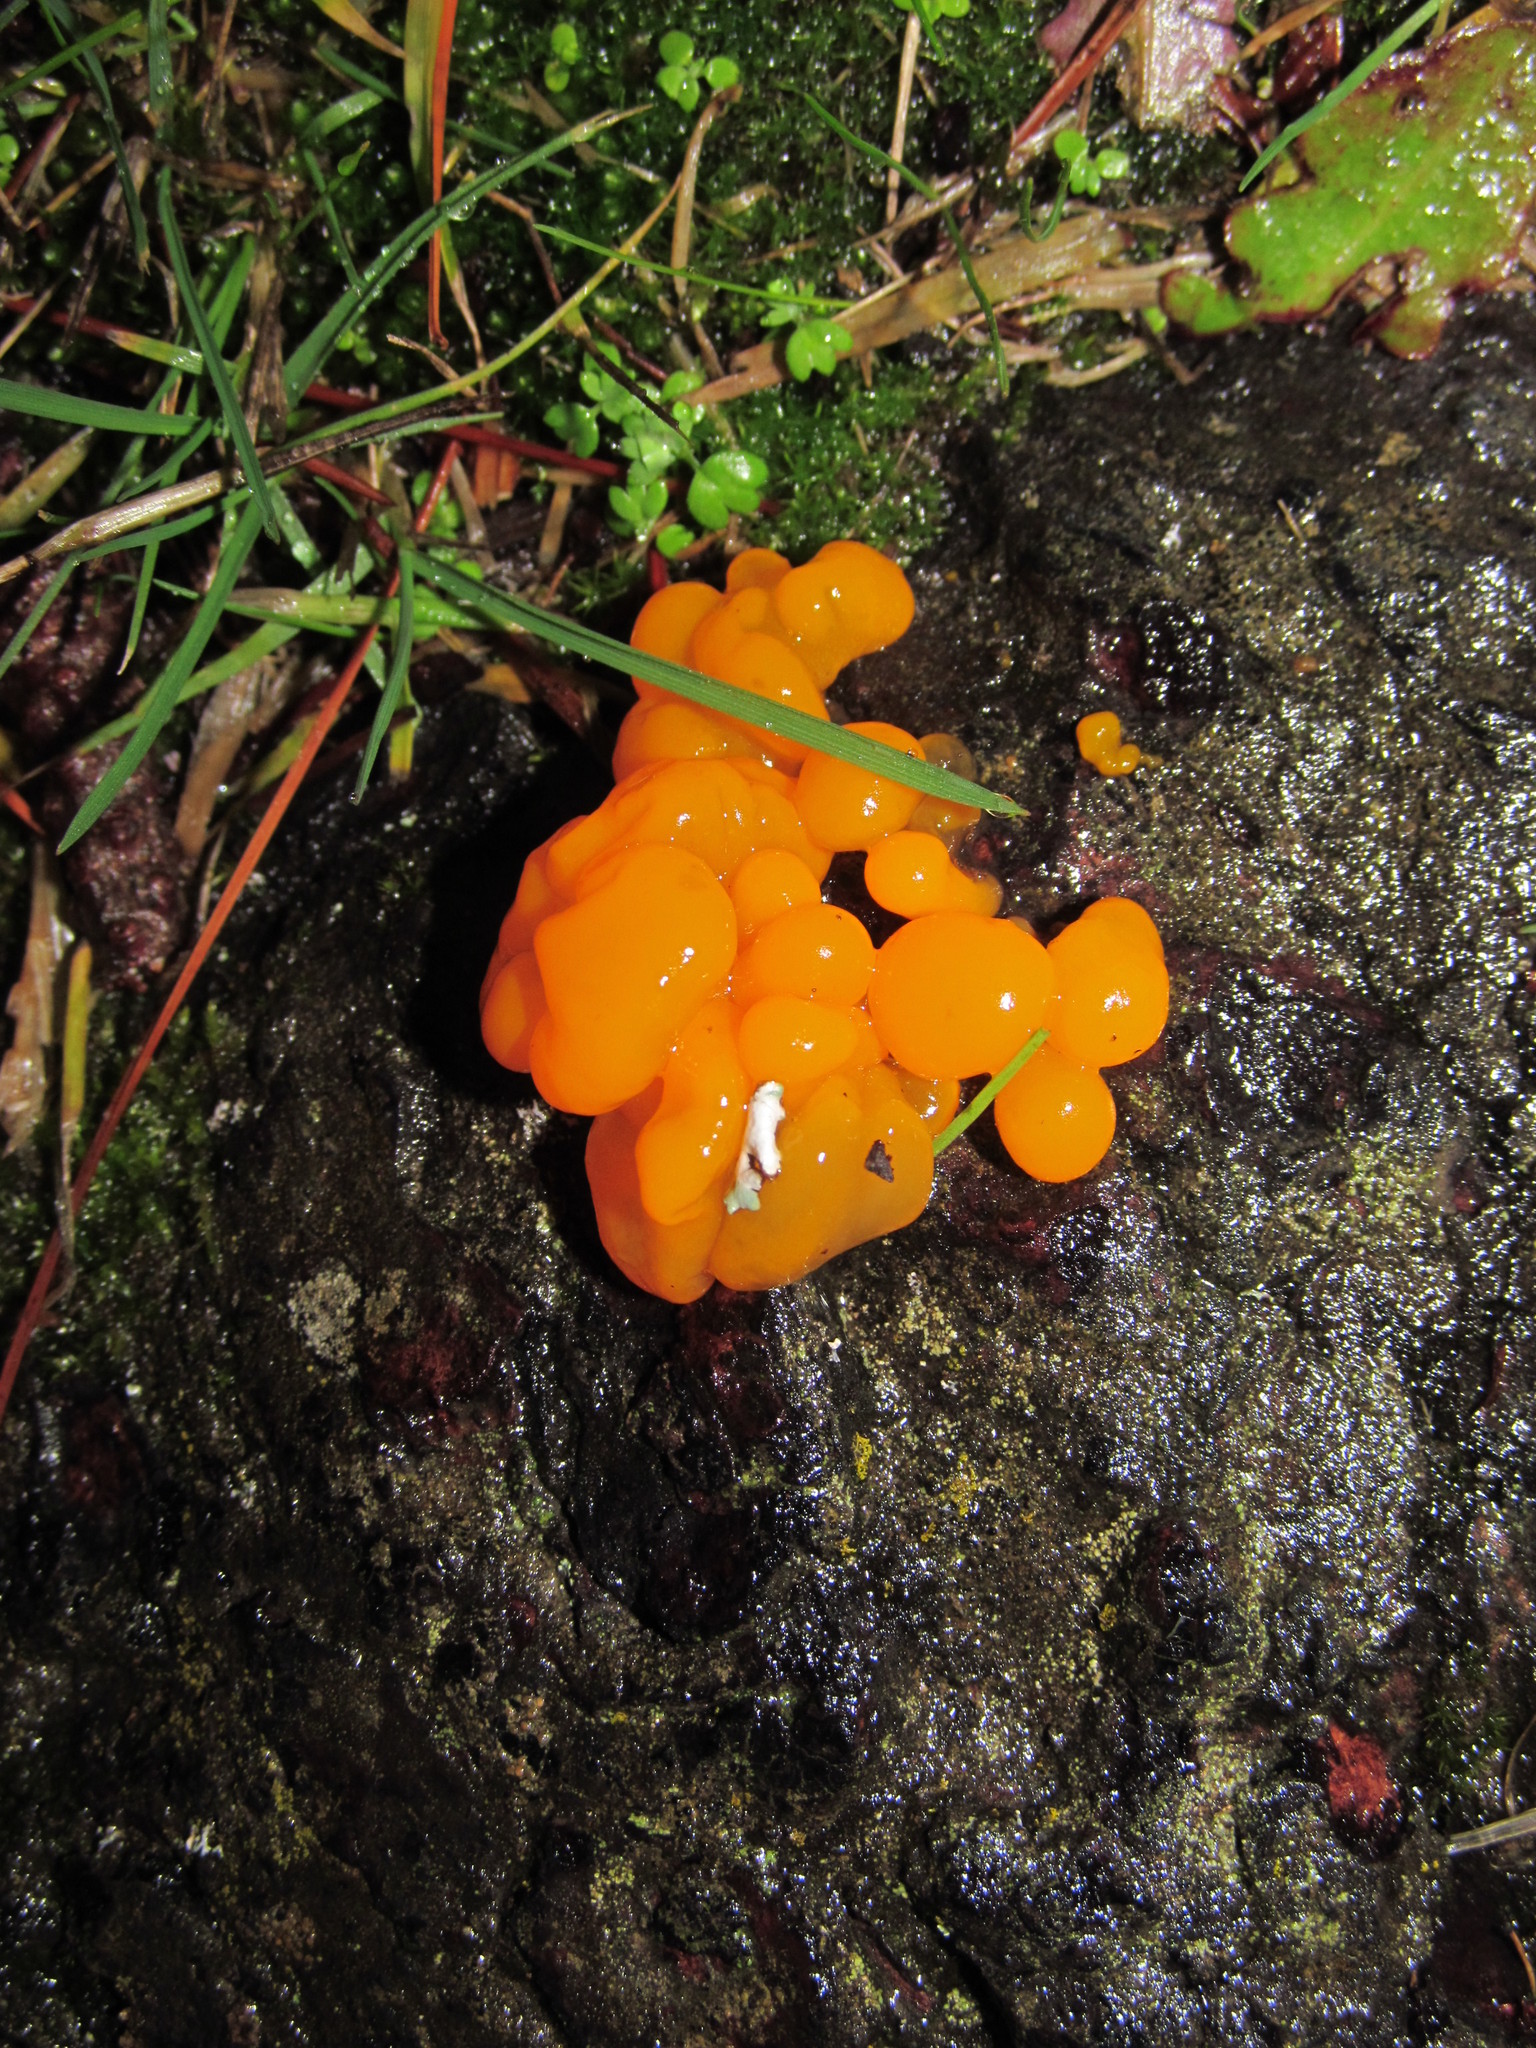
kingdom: Fungi
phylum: Basidiomycota
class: Dacrymycetes
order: Dacrymycetales
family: Dacrymycetaceae
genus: Dacrymyces
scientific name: Dacrymyces chrysospermus
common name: Orange jelly spot
